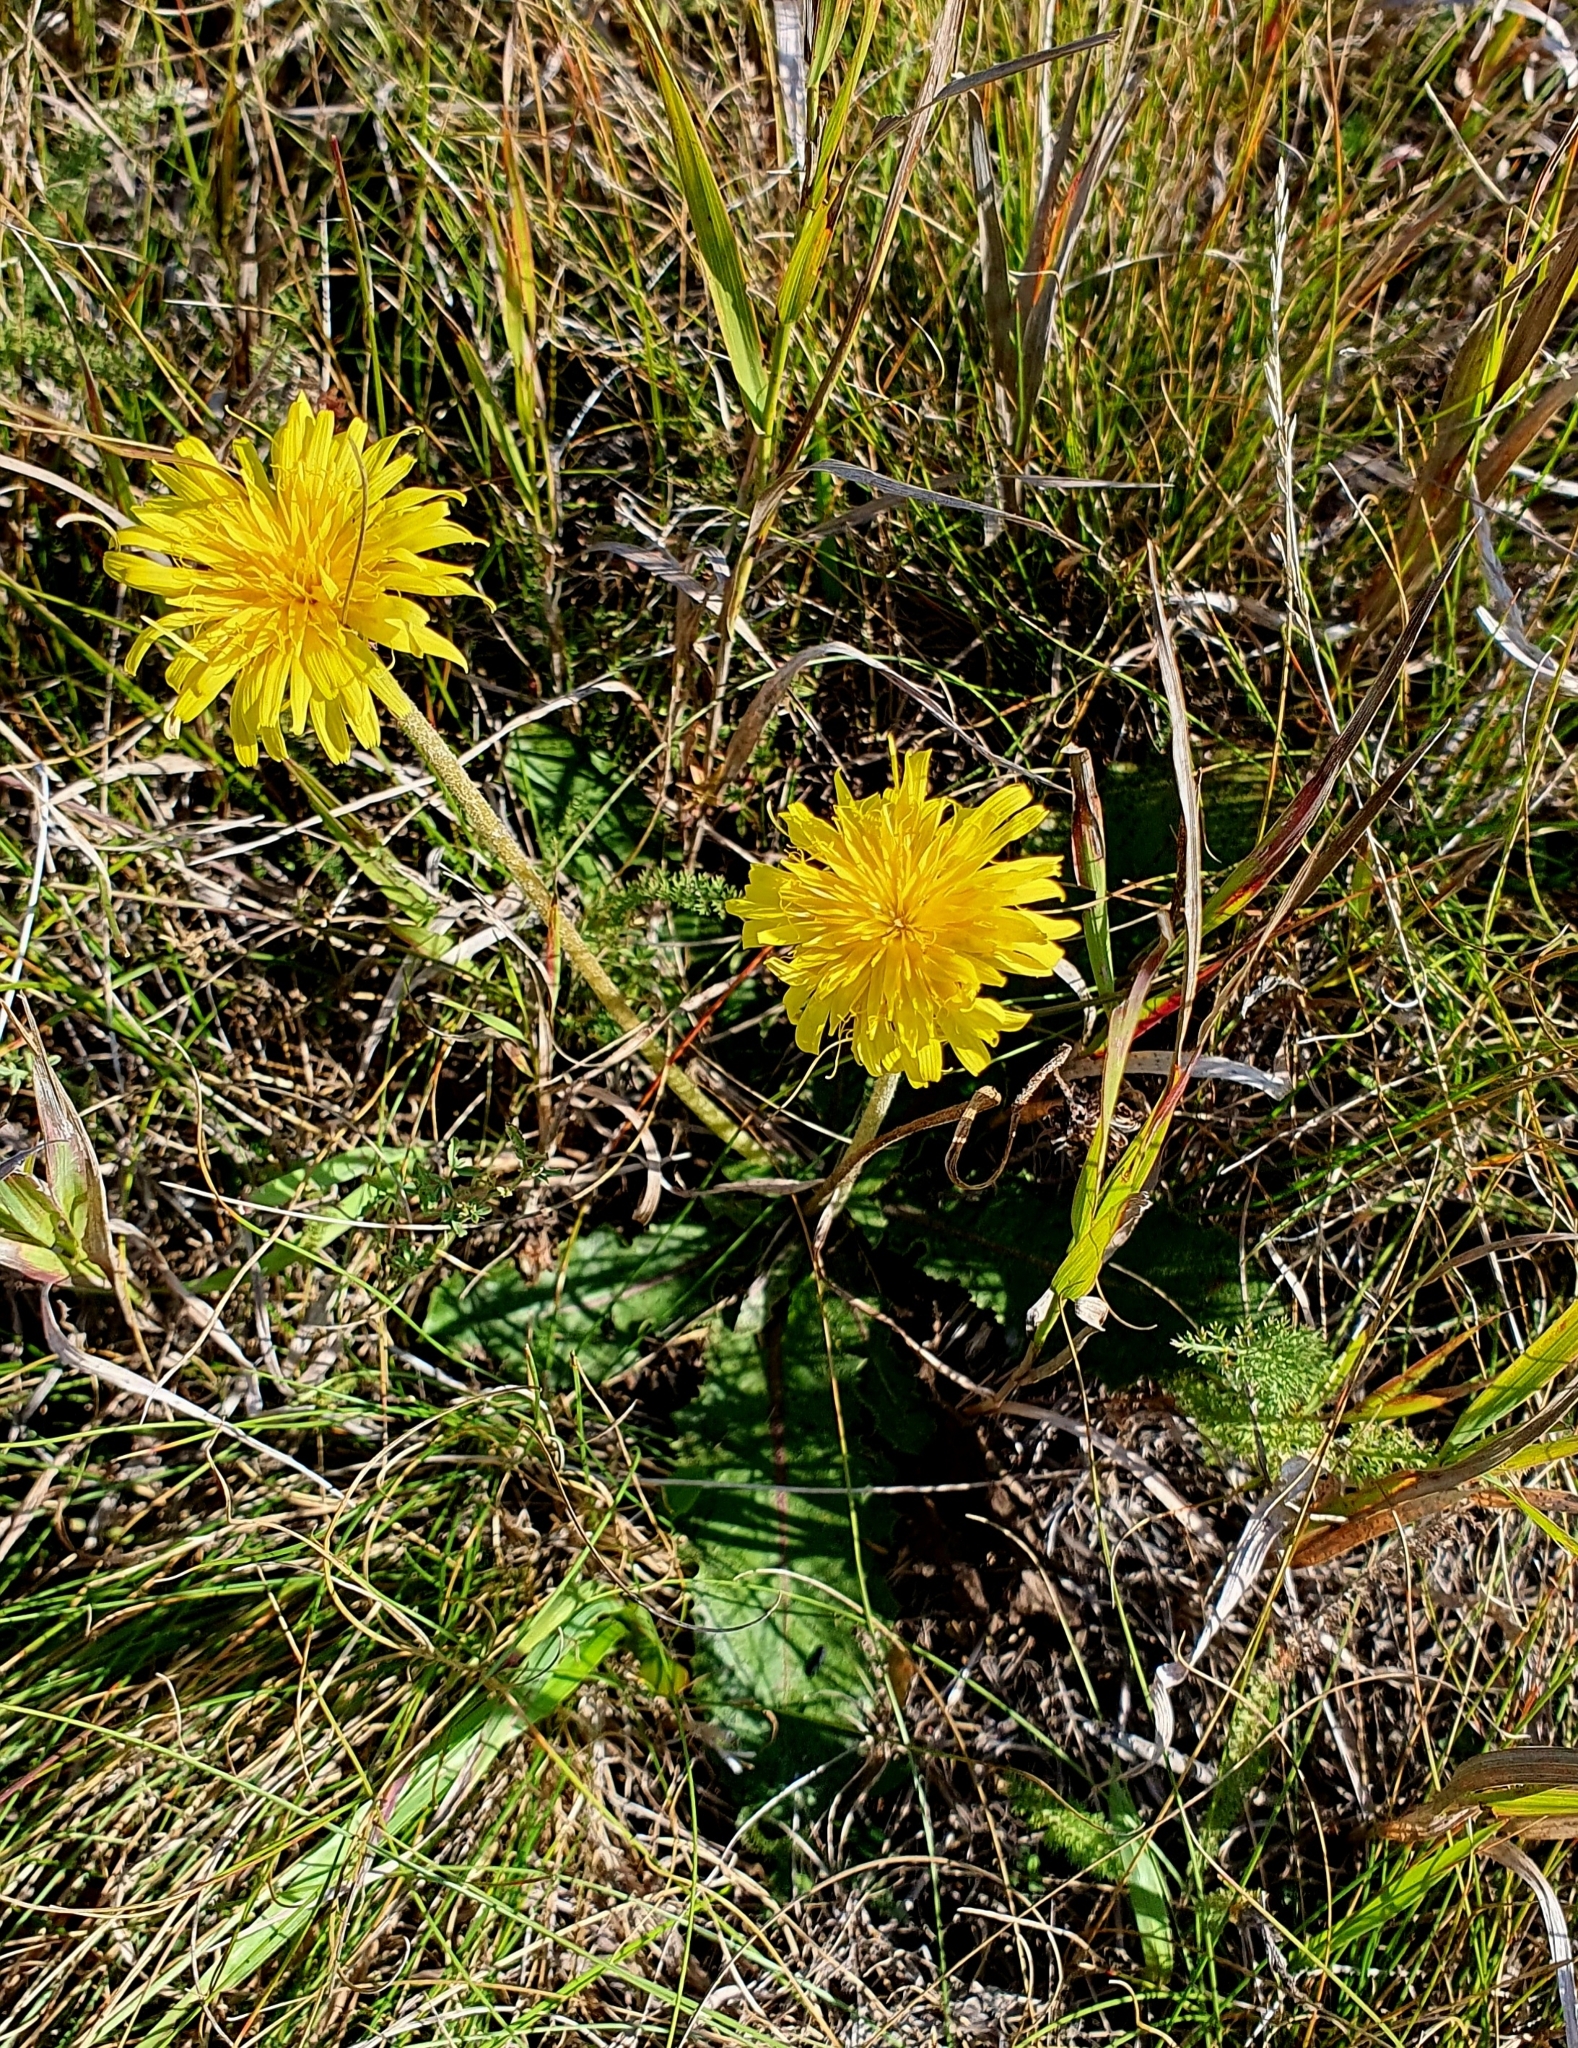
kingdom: Plantae
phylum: Tracheophyta
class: Magnoliopsida
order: Asterales
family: Asteraceae
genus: Taraxacum
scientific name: Taraxacum serotinum
